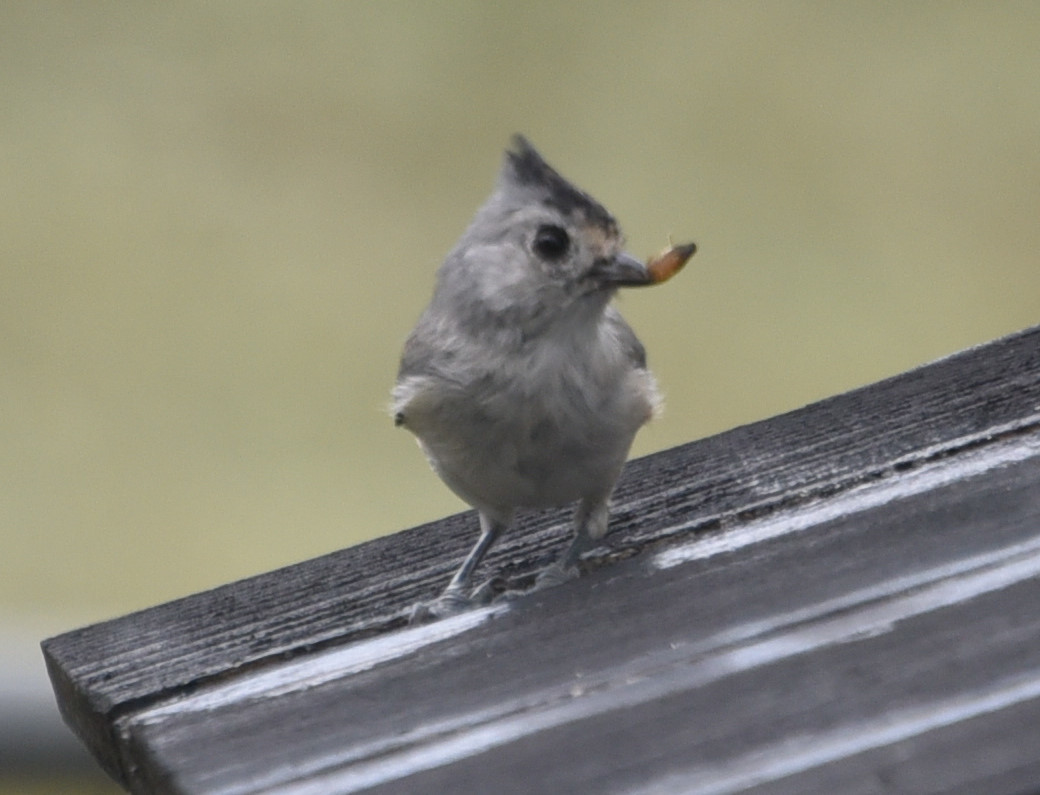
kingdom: Animalia
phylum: Chordata
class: Aves
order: Passeriformes
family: Paridae
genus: Baeolophus
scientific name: Baeolophus atricristatus
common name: Black-crested titmouse
